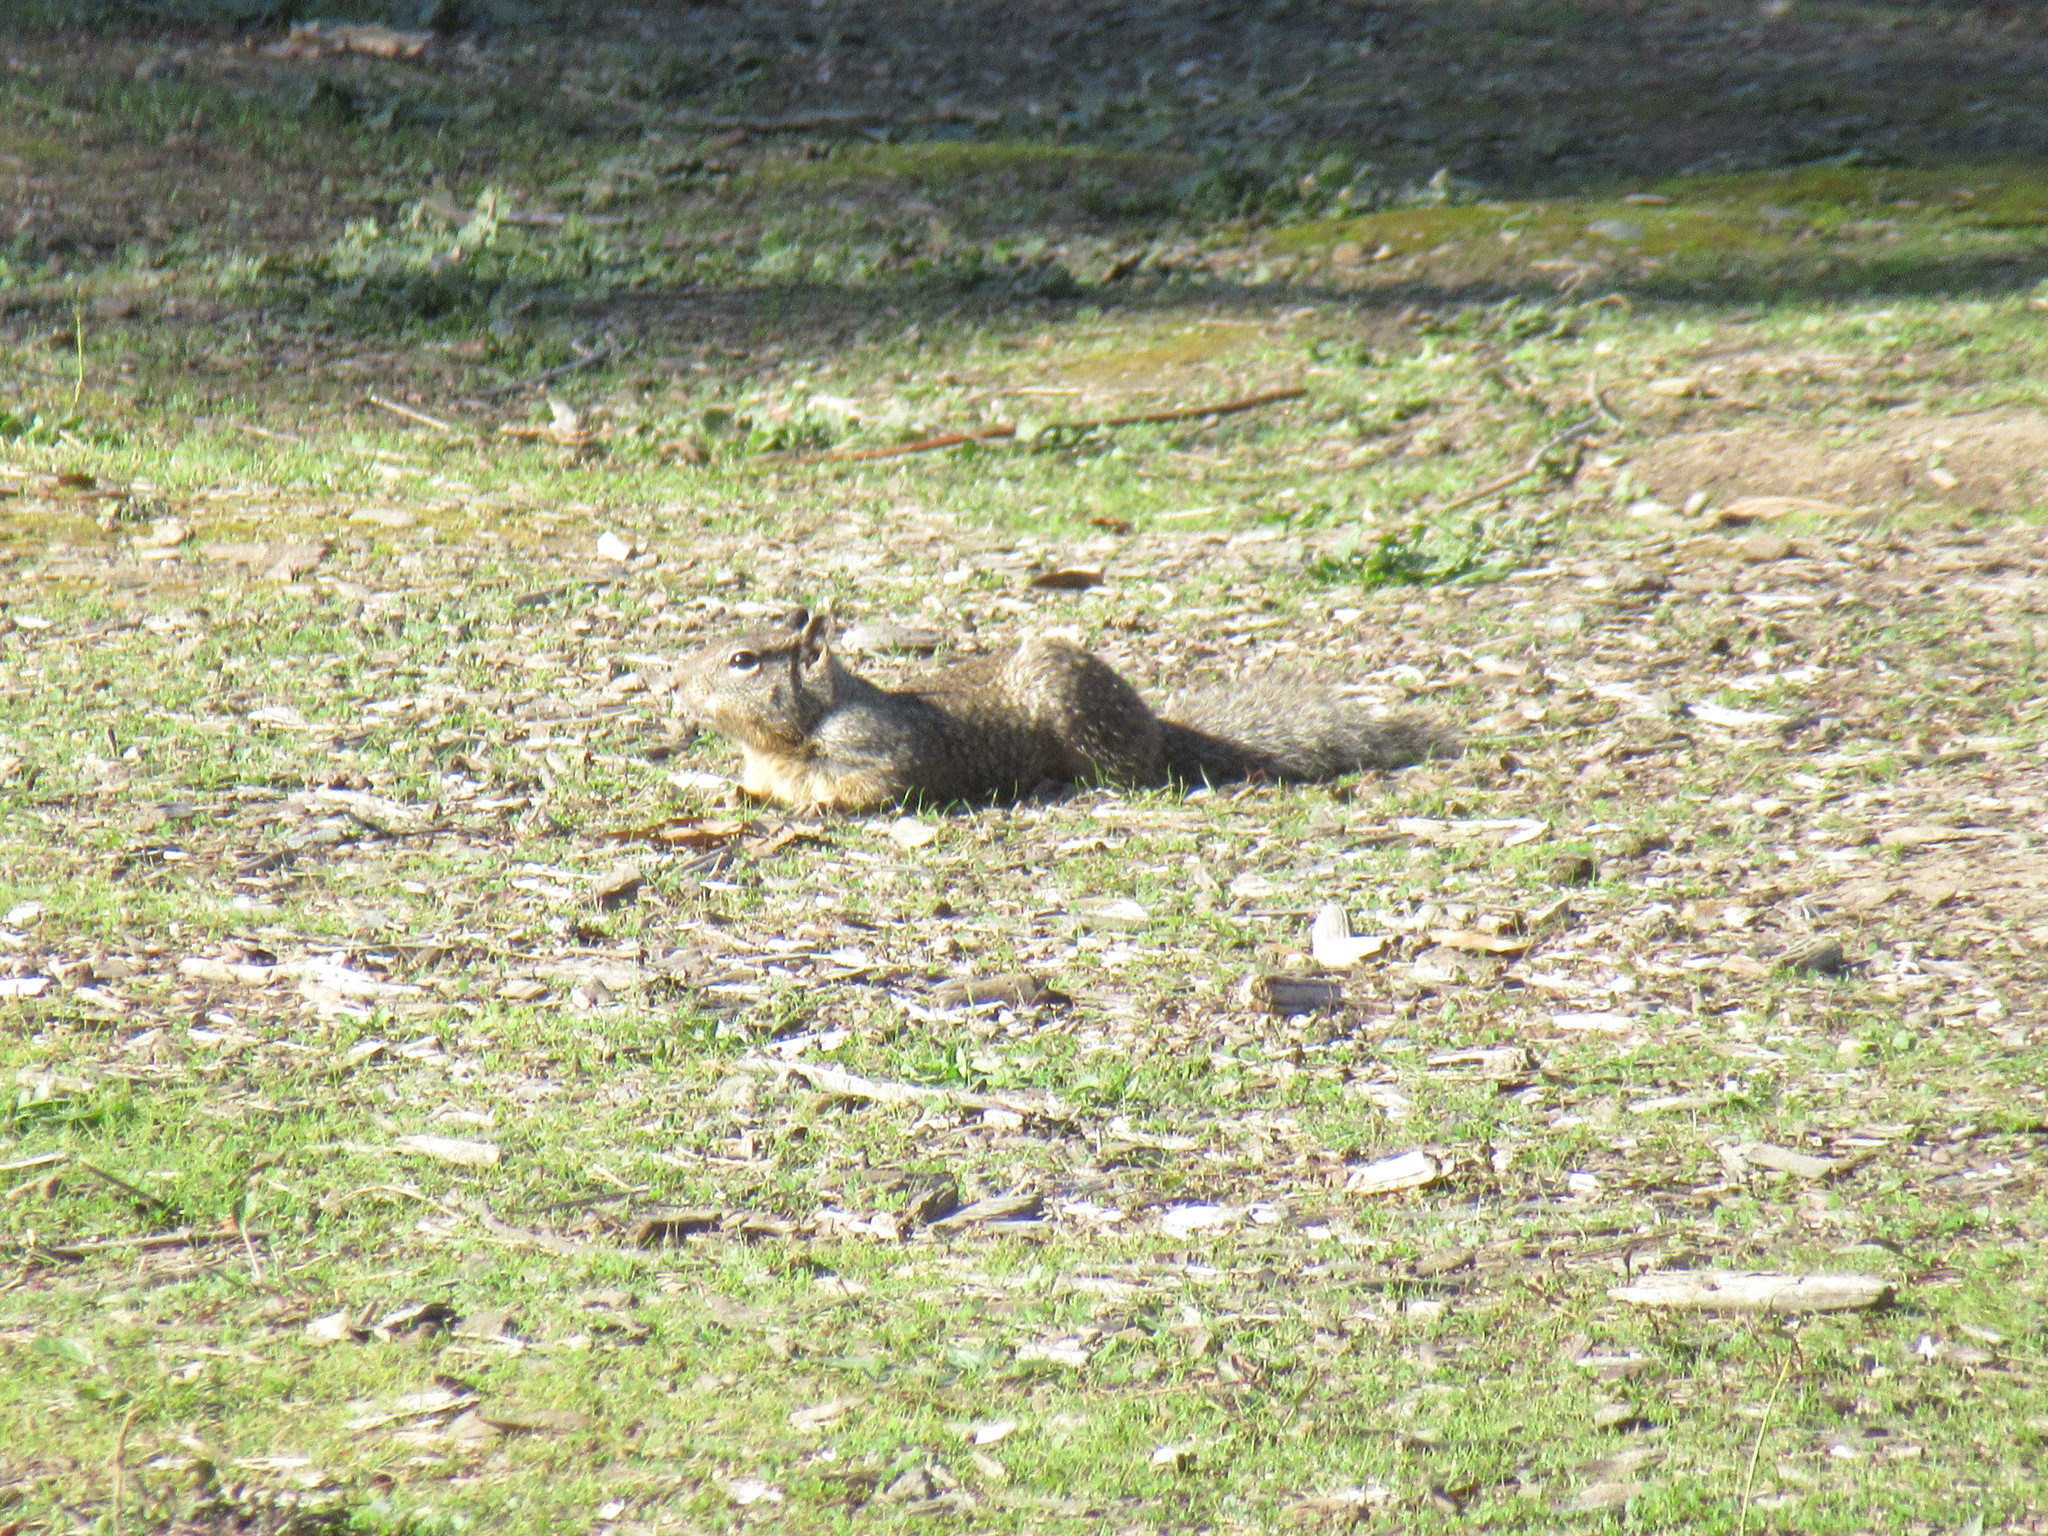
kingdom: Animalia
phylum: Chordata
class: Mammalia
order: Rodentia
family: Sciuridae
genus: Otospermophilus
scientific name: Otospermophilus beecheyi
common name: California ground squirrel
